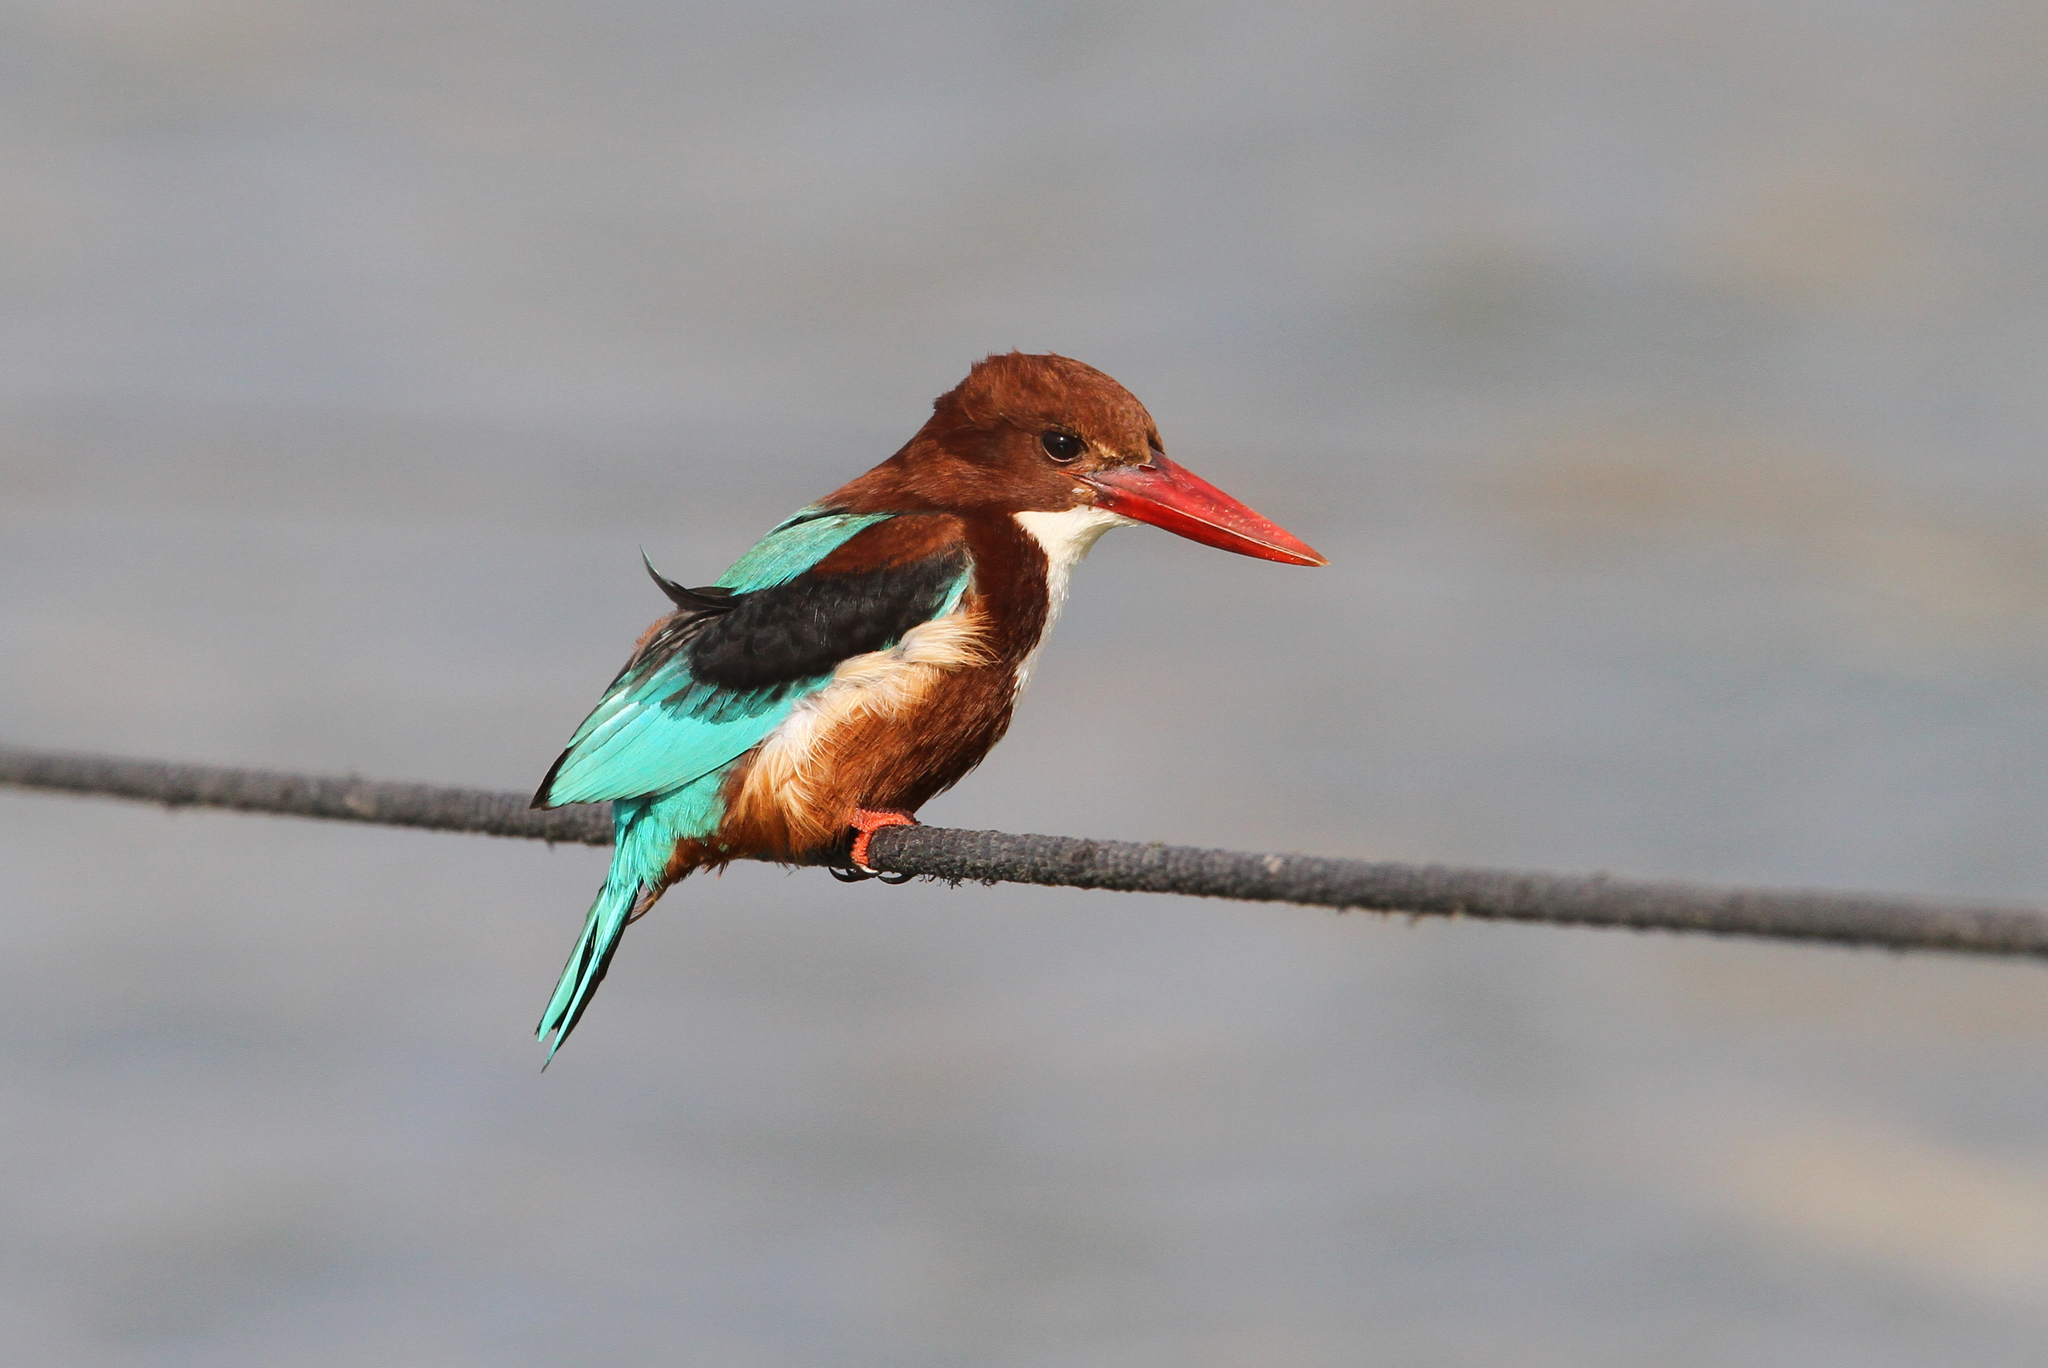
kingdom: Animalia
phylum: Chordata
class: Aves
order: Coraciiformes
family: Alcedinidae
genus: Halcyon
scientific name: Halcyon smyrnensis
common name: White-throated kingfisher
